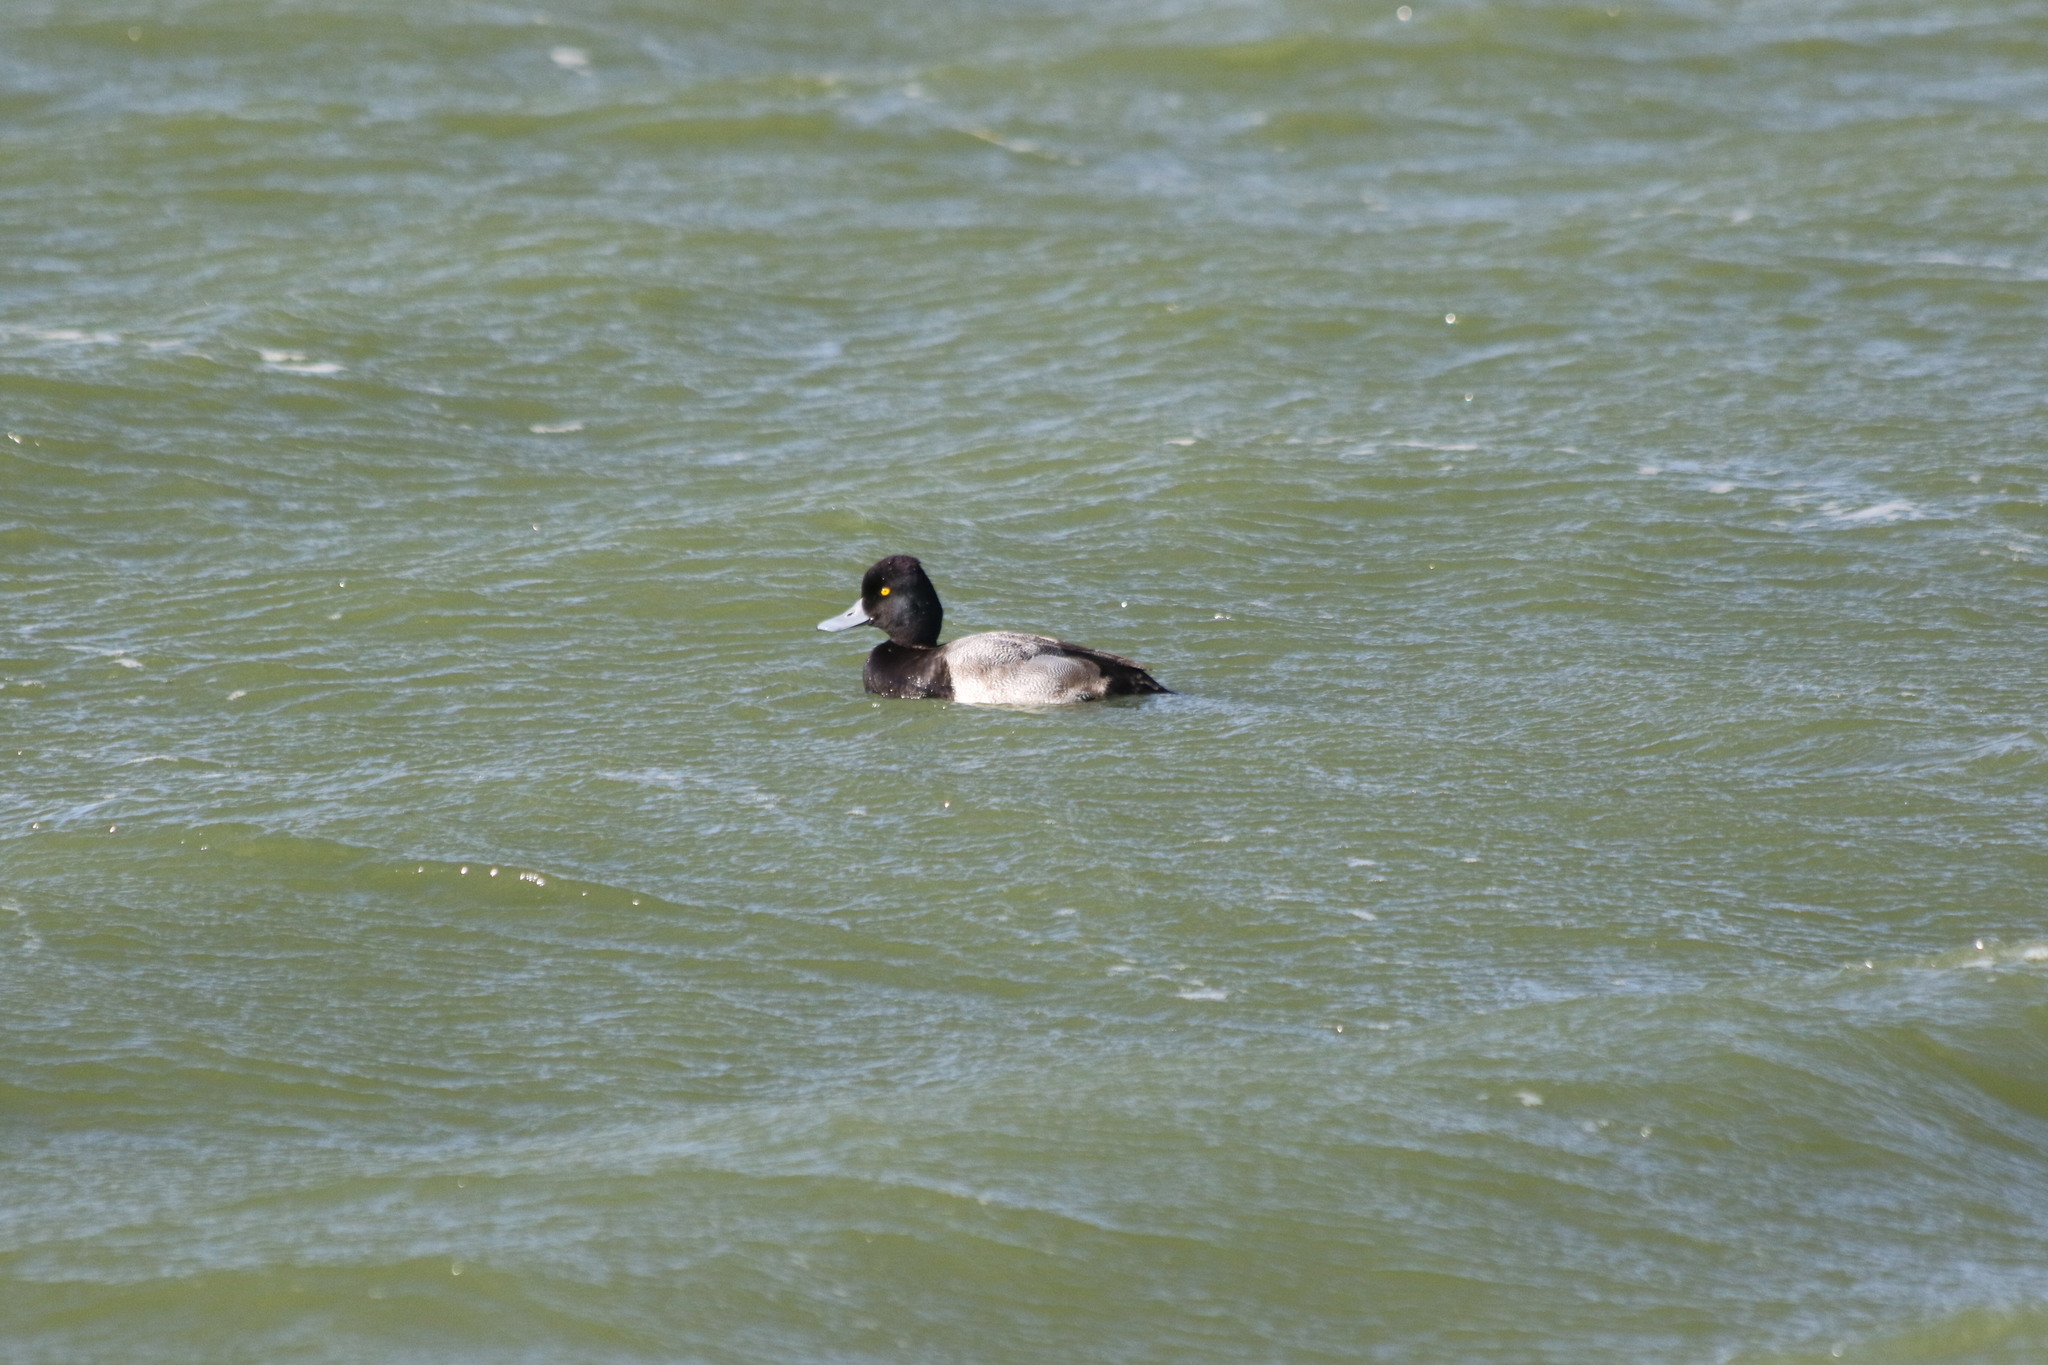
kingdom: Animalia
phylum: Chordata
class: Aves
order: Anseriformes
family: Anatidae
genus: Aythya
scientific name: Aythya affinis
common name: Lesser scaup
